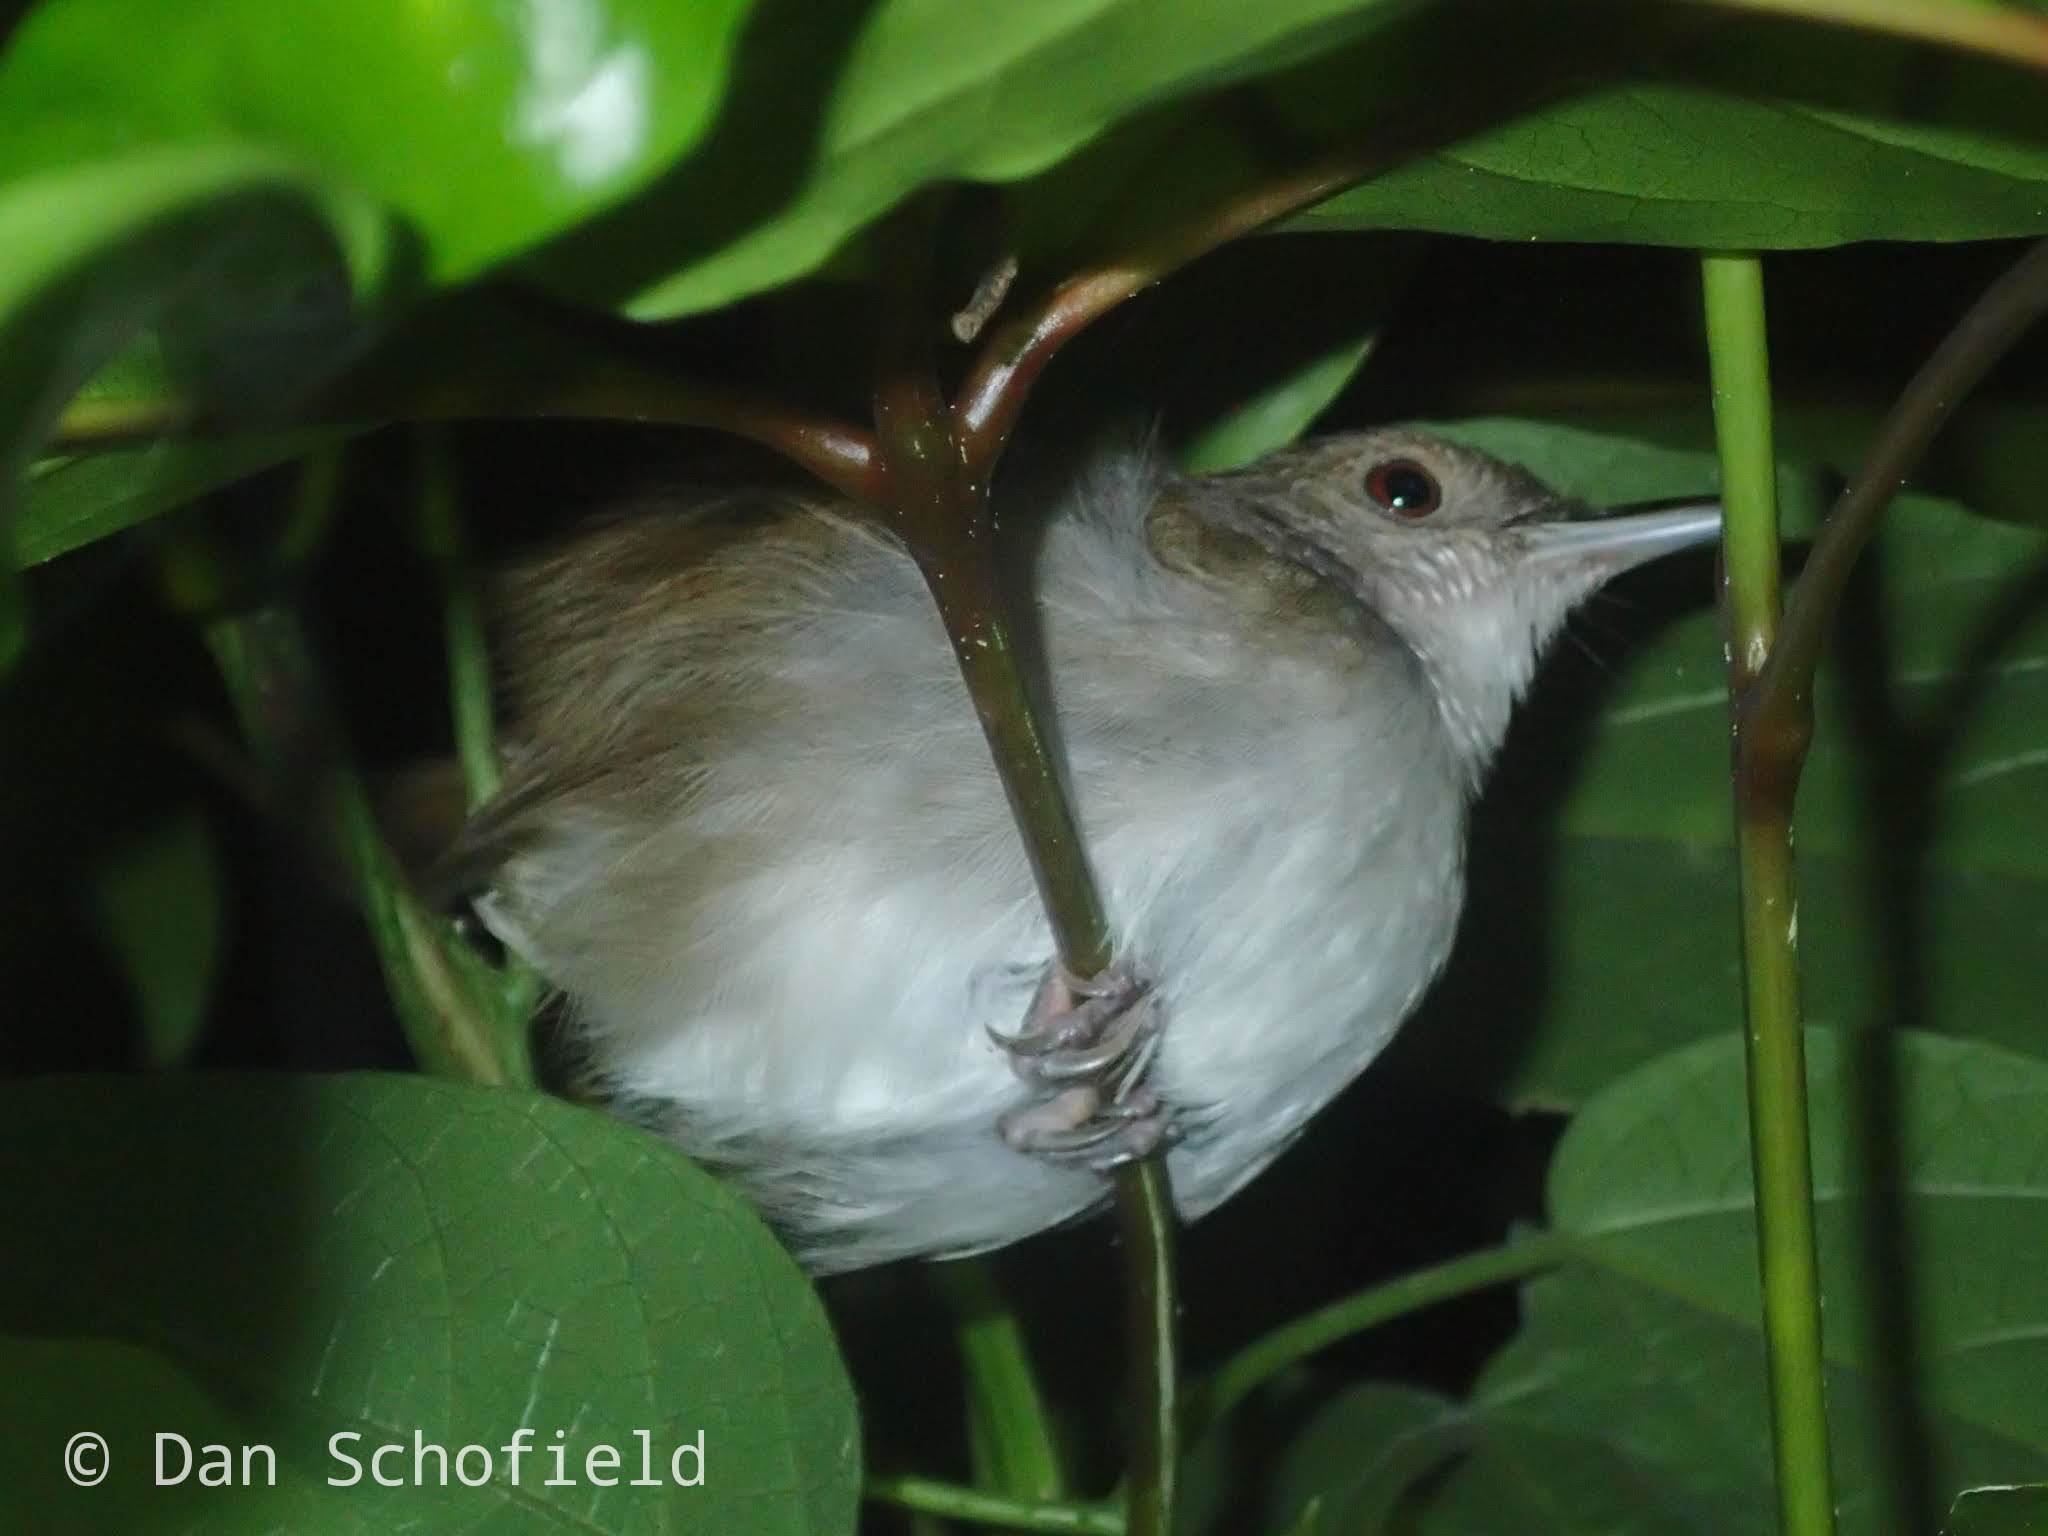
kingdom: Animalia
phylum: Chordata
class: Aves
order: Passeriformes
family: Pellorneidae
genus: Trichastoma
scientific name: Trichastoma celebense
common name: Sulawesi babbler
